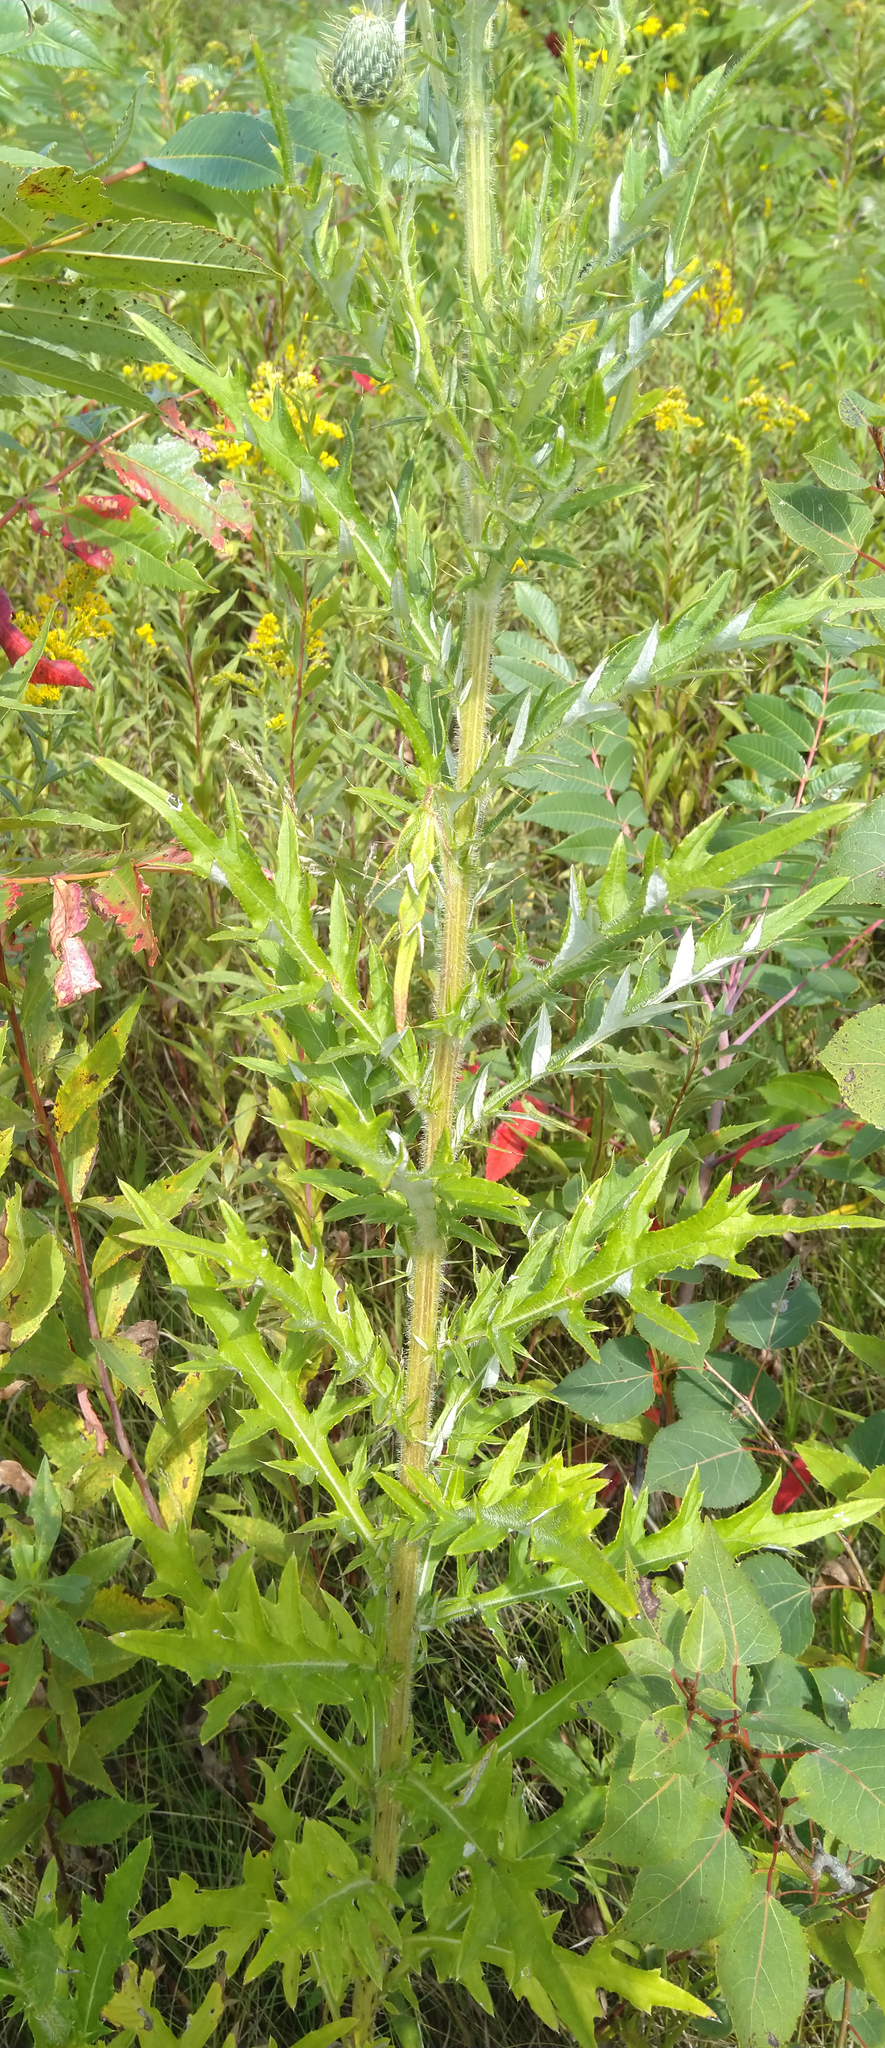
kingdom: Plantae
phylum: Tracheophyta
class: Magnoliopsida
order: Asterales
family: Asteraceae
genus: Cirsium
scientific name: Cirsium discolor
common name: Field thistle
